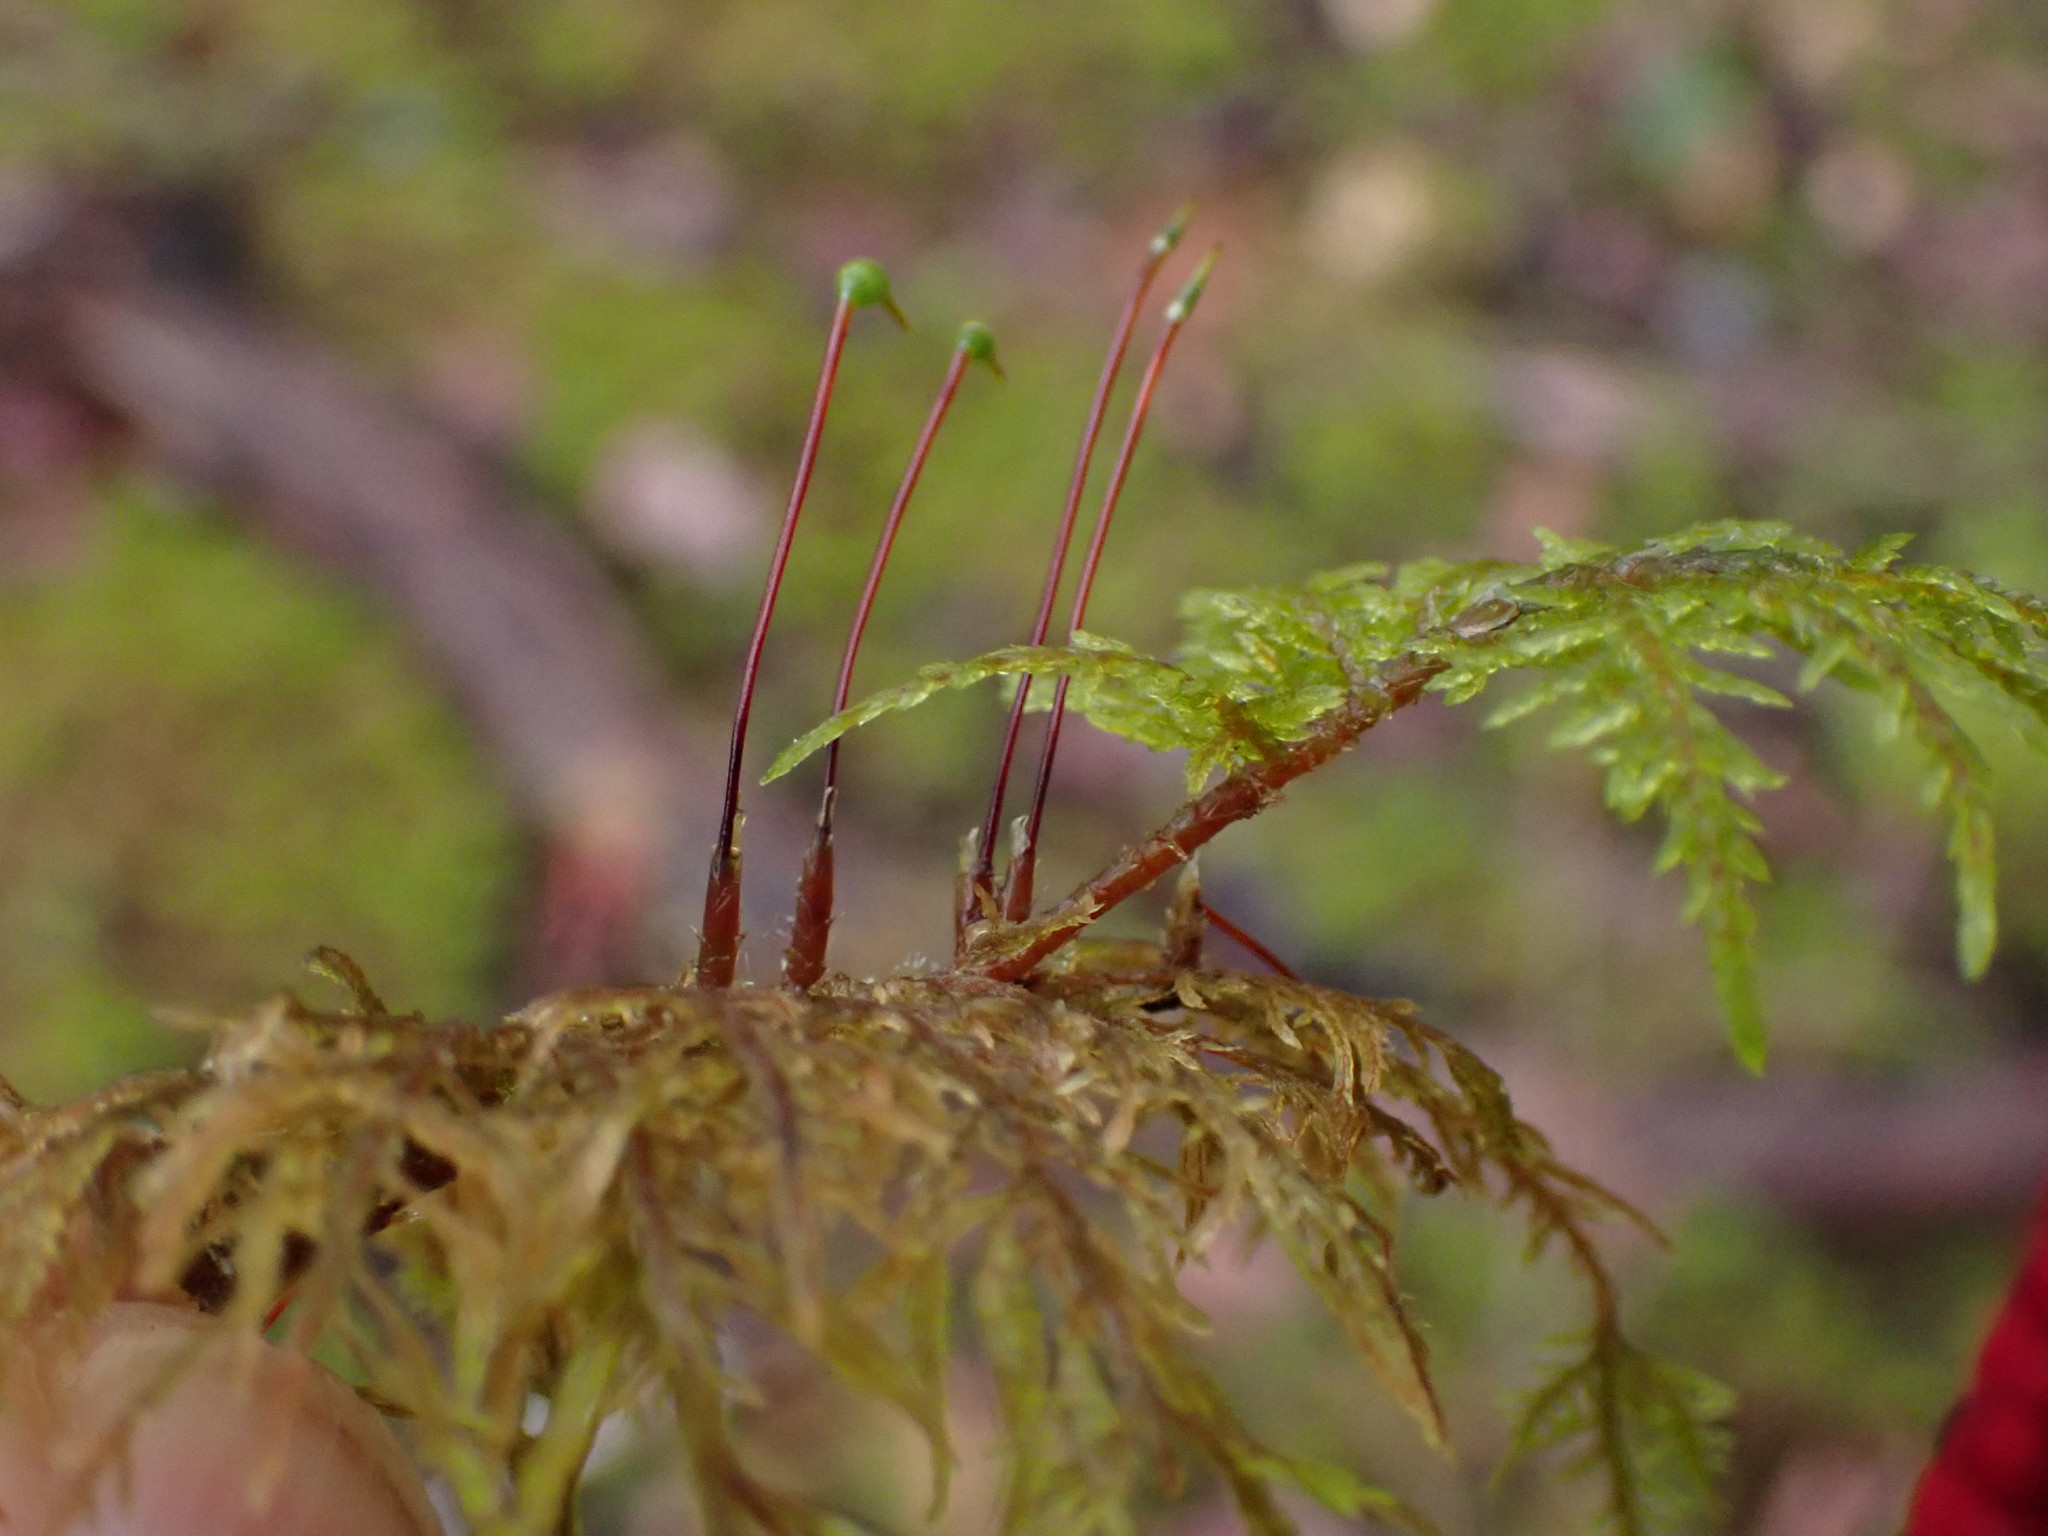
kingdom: Plantae
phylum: Bryophyta
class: Bryopsida
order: Hypnales
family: Hylocomiaceae
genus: Hylocomium
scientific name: Hylocomium splendens
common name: Stairstep moss
